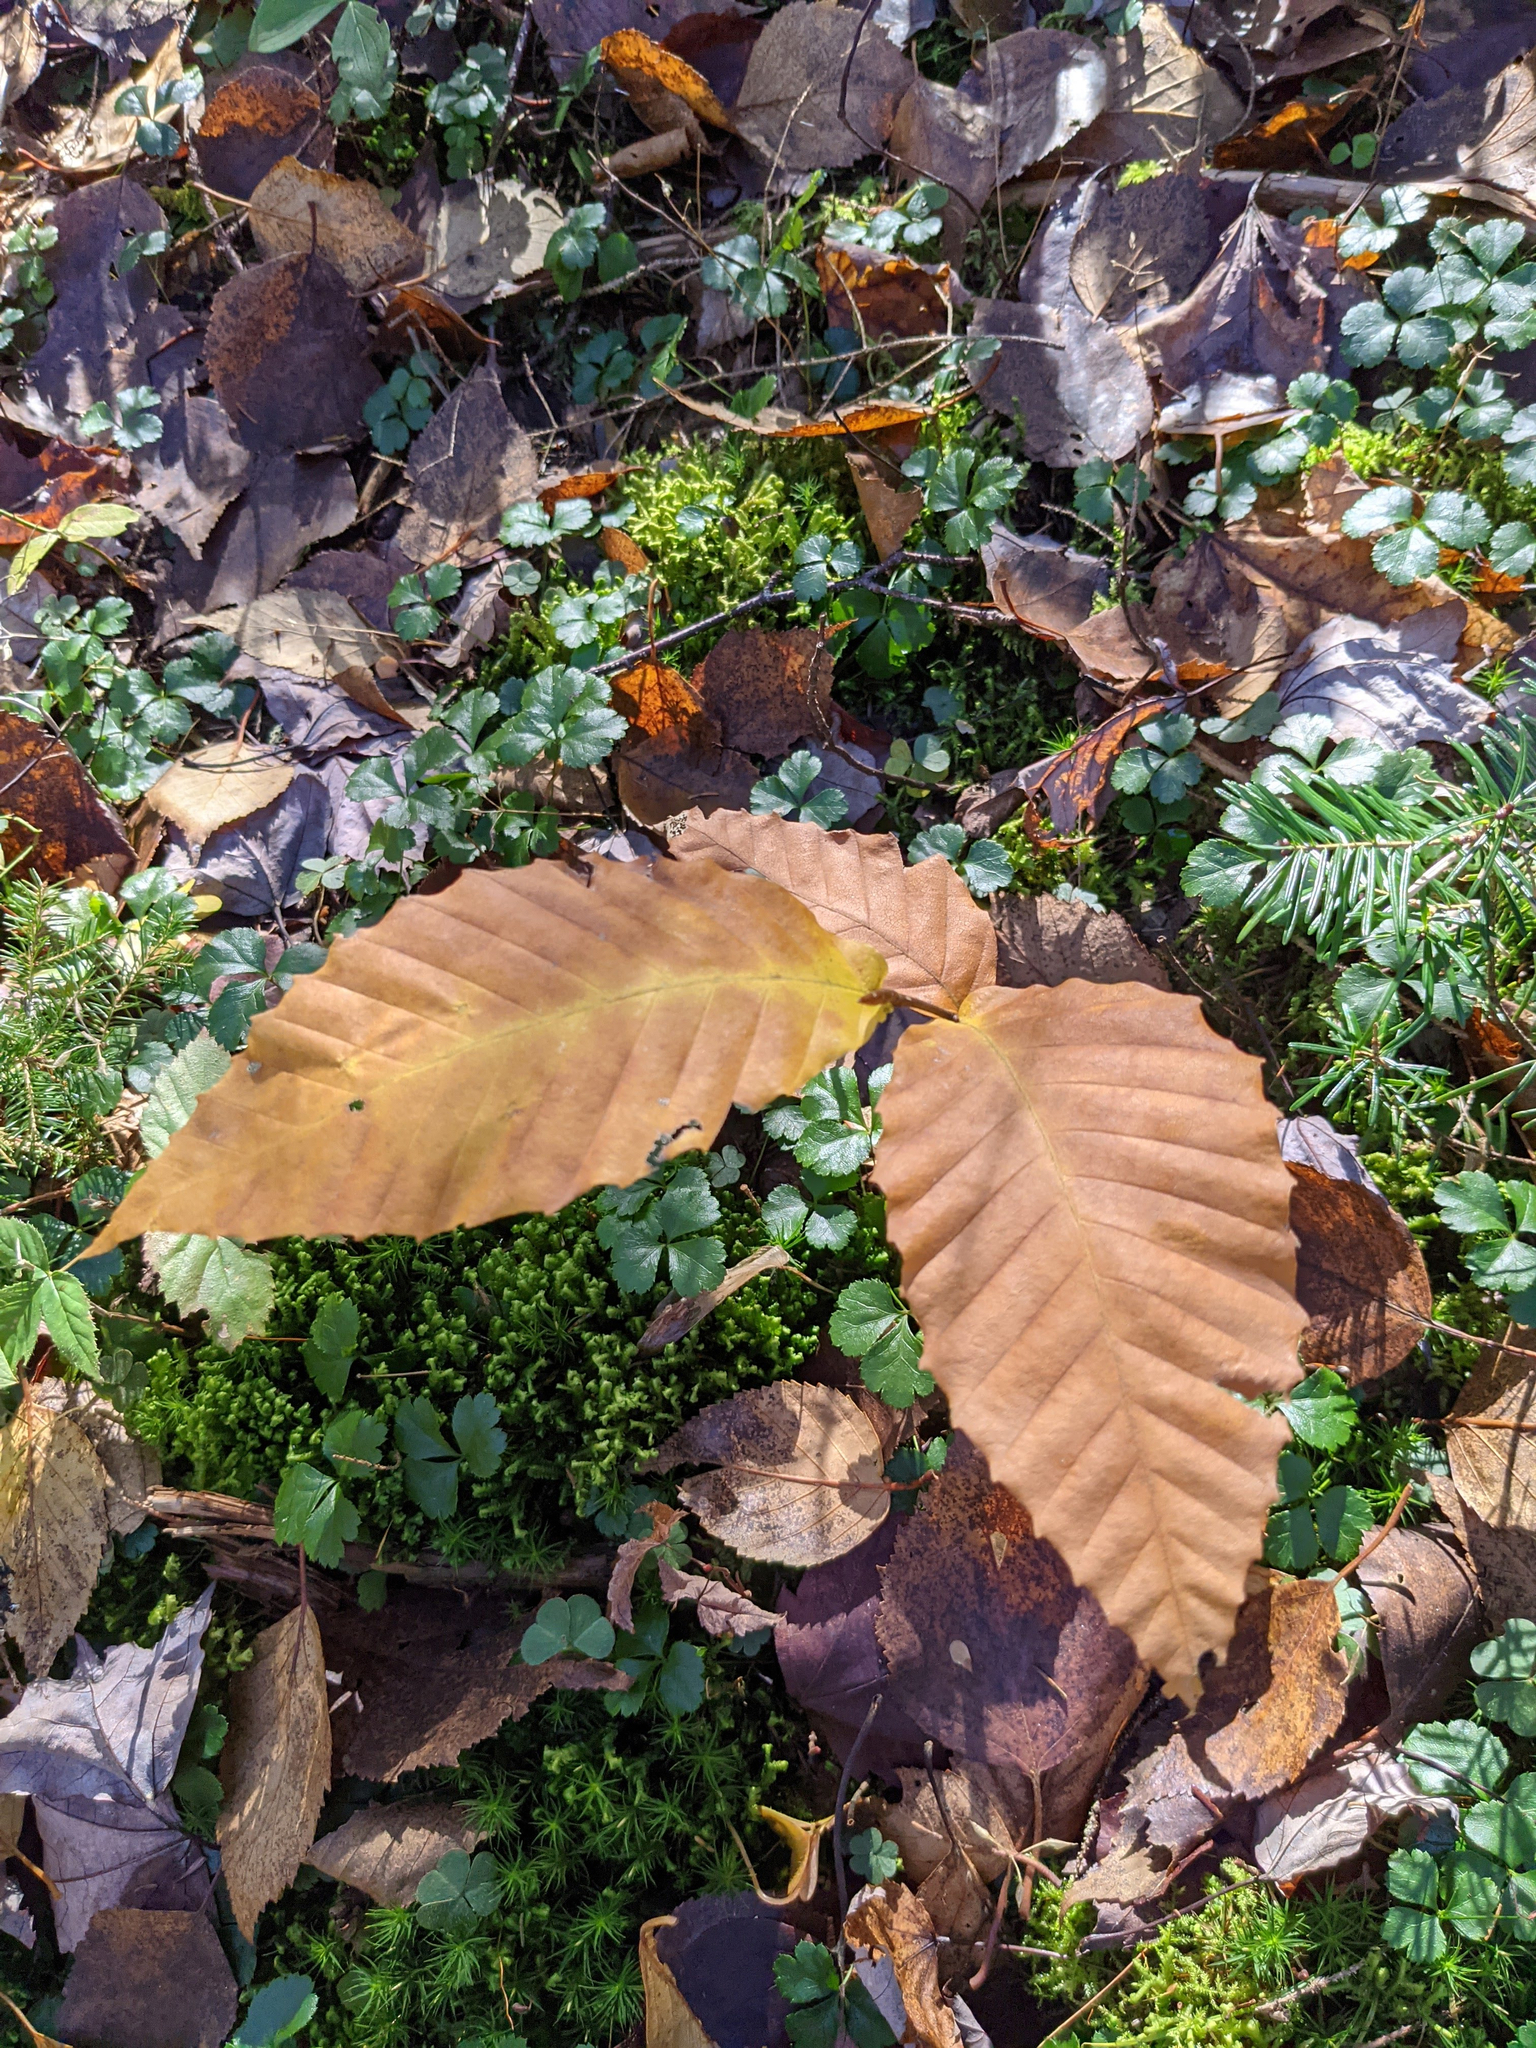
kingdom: Plantae
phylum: Tracheophyta
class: Magnoliopsida
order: Fagales
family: Fagaceae
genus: Fagus
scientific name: Fagus grandifolia
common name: American beech
